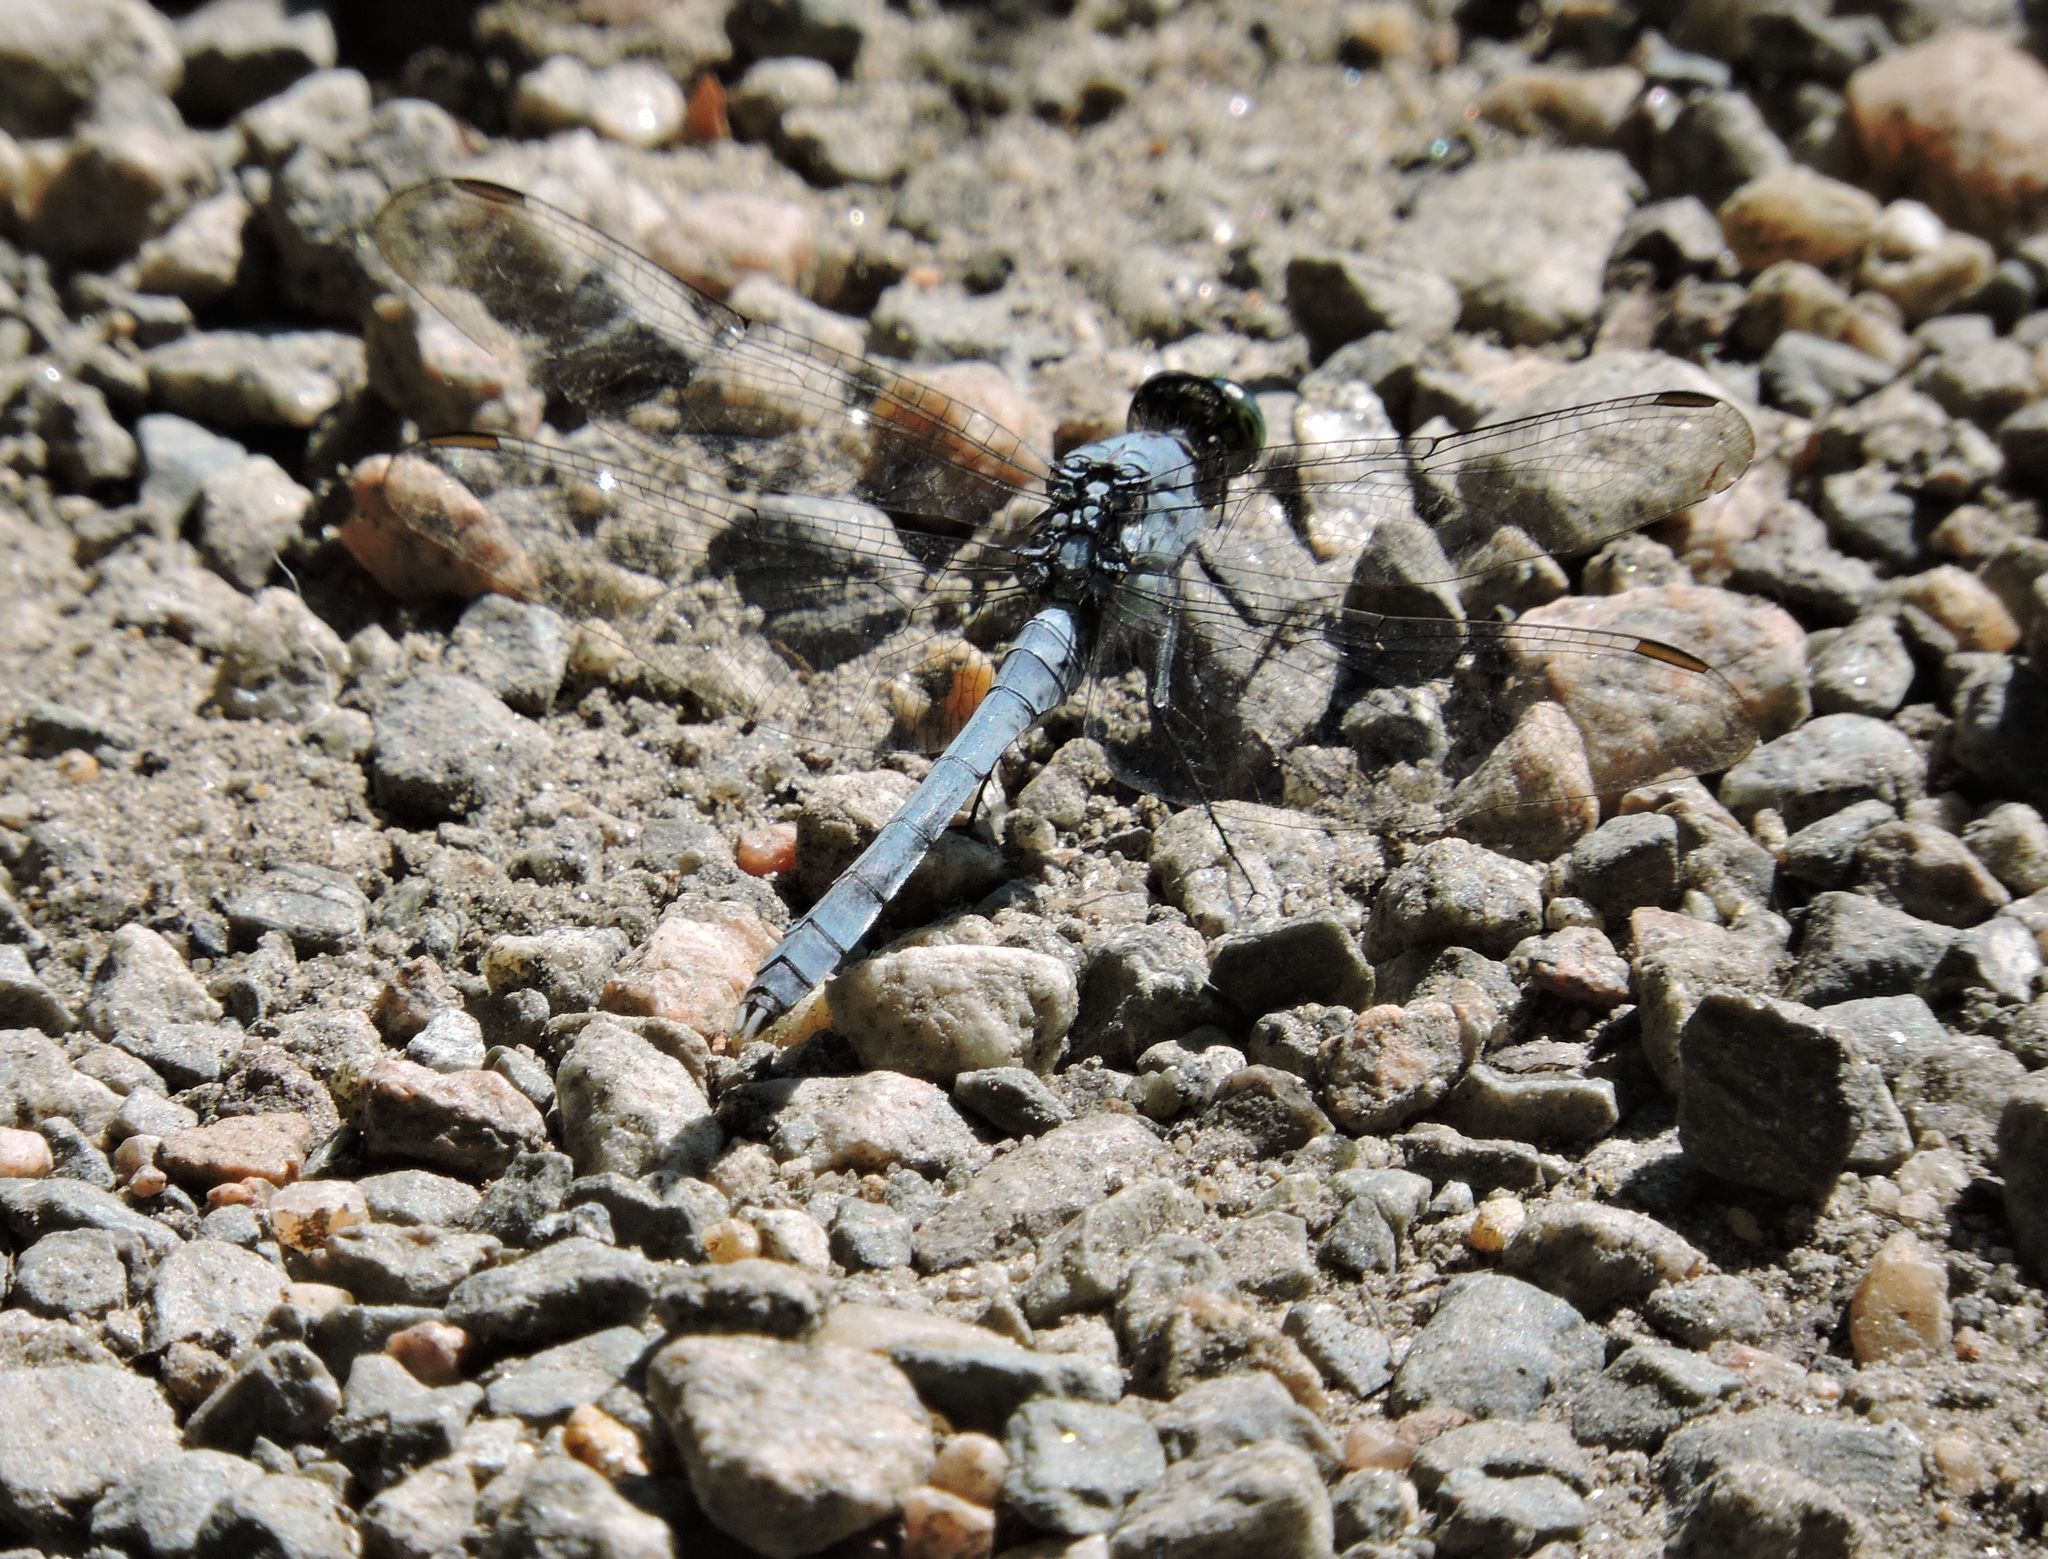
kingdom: Animalia
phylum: Arthropoda
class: Insecta
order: Odonata
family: Libellulidae
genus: Erythemis
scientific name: Erythemis simplicicollis
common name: Eastern pondhawk
